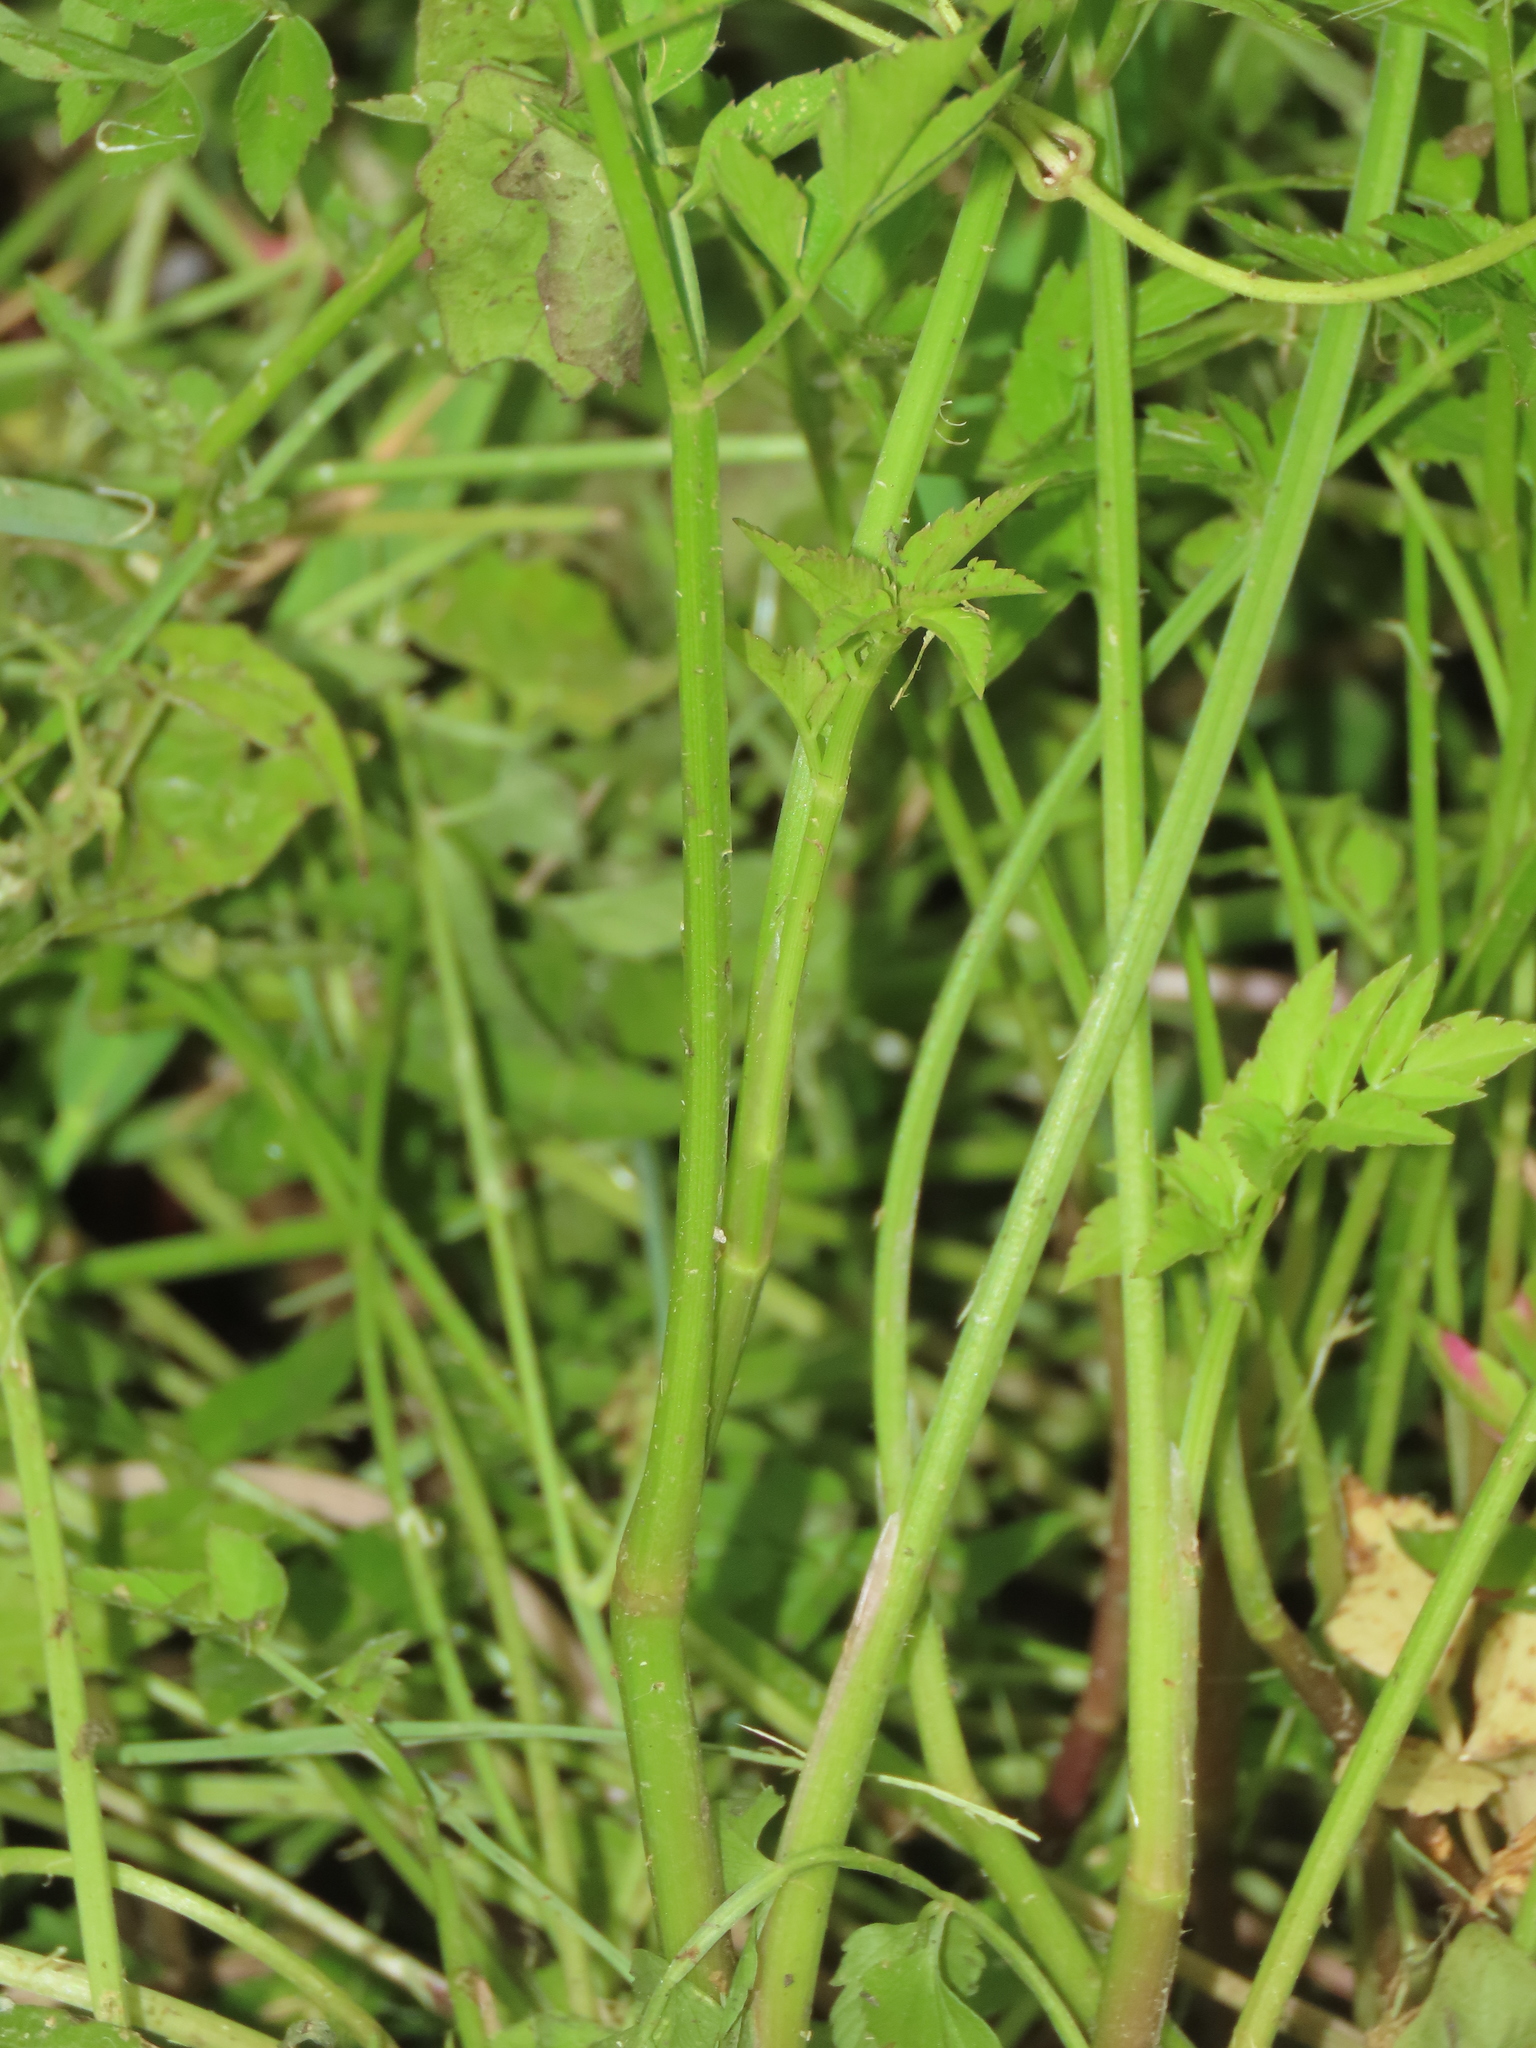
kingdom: Plantae
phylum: Tracheophyta
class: Magnoliopsida
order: Apiales
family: Apiaceae
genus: Oenanthe
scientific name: Oenanthe javanica
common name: Java water-dropwort
